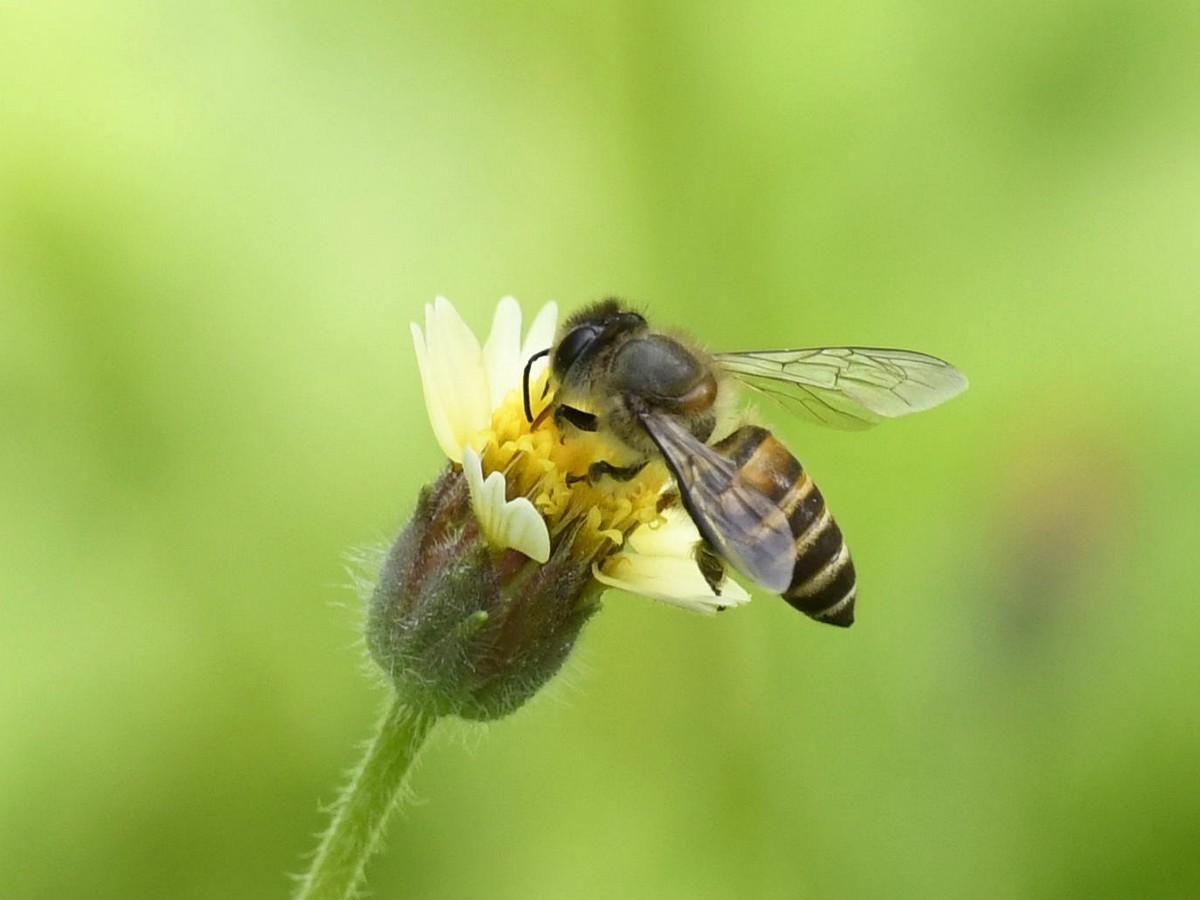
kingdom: Animalia
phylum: Arthropoda
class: Insecta
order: Hymenoptera
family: Apidae
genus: Apis
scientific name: Apis cerana
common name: Honey bee
